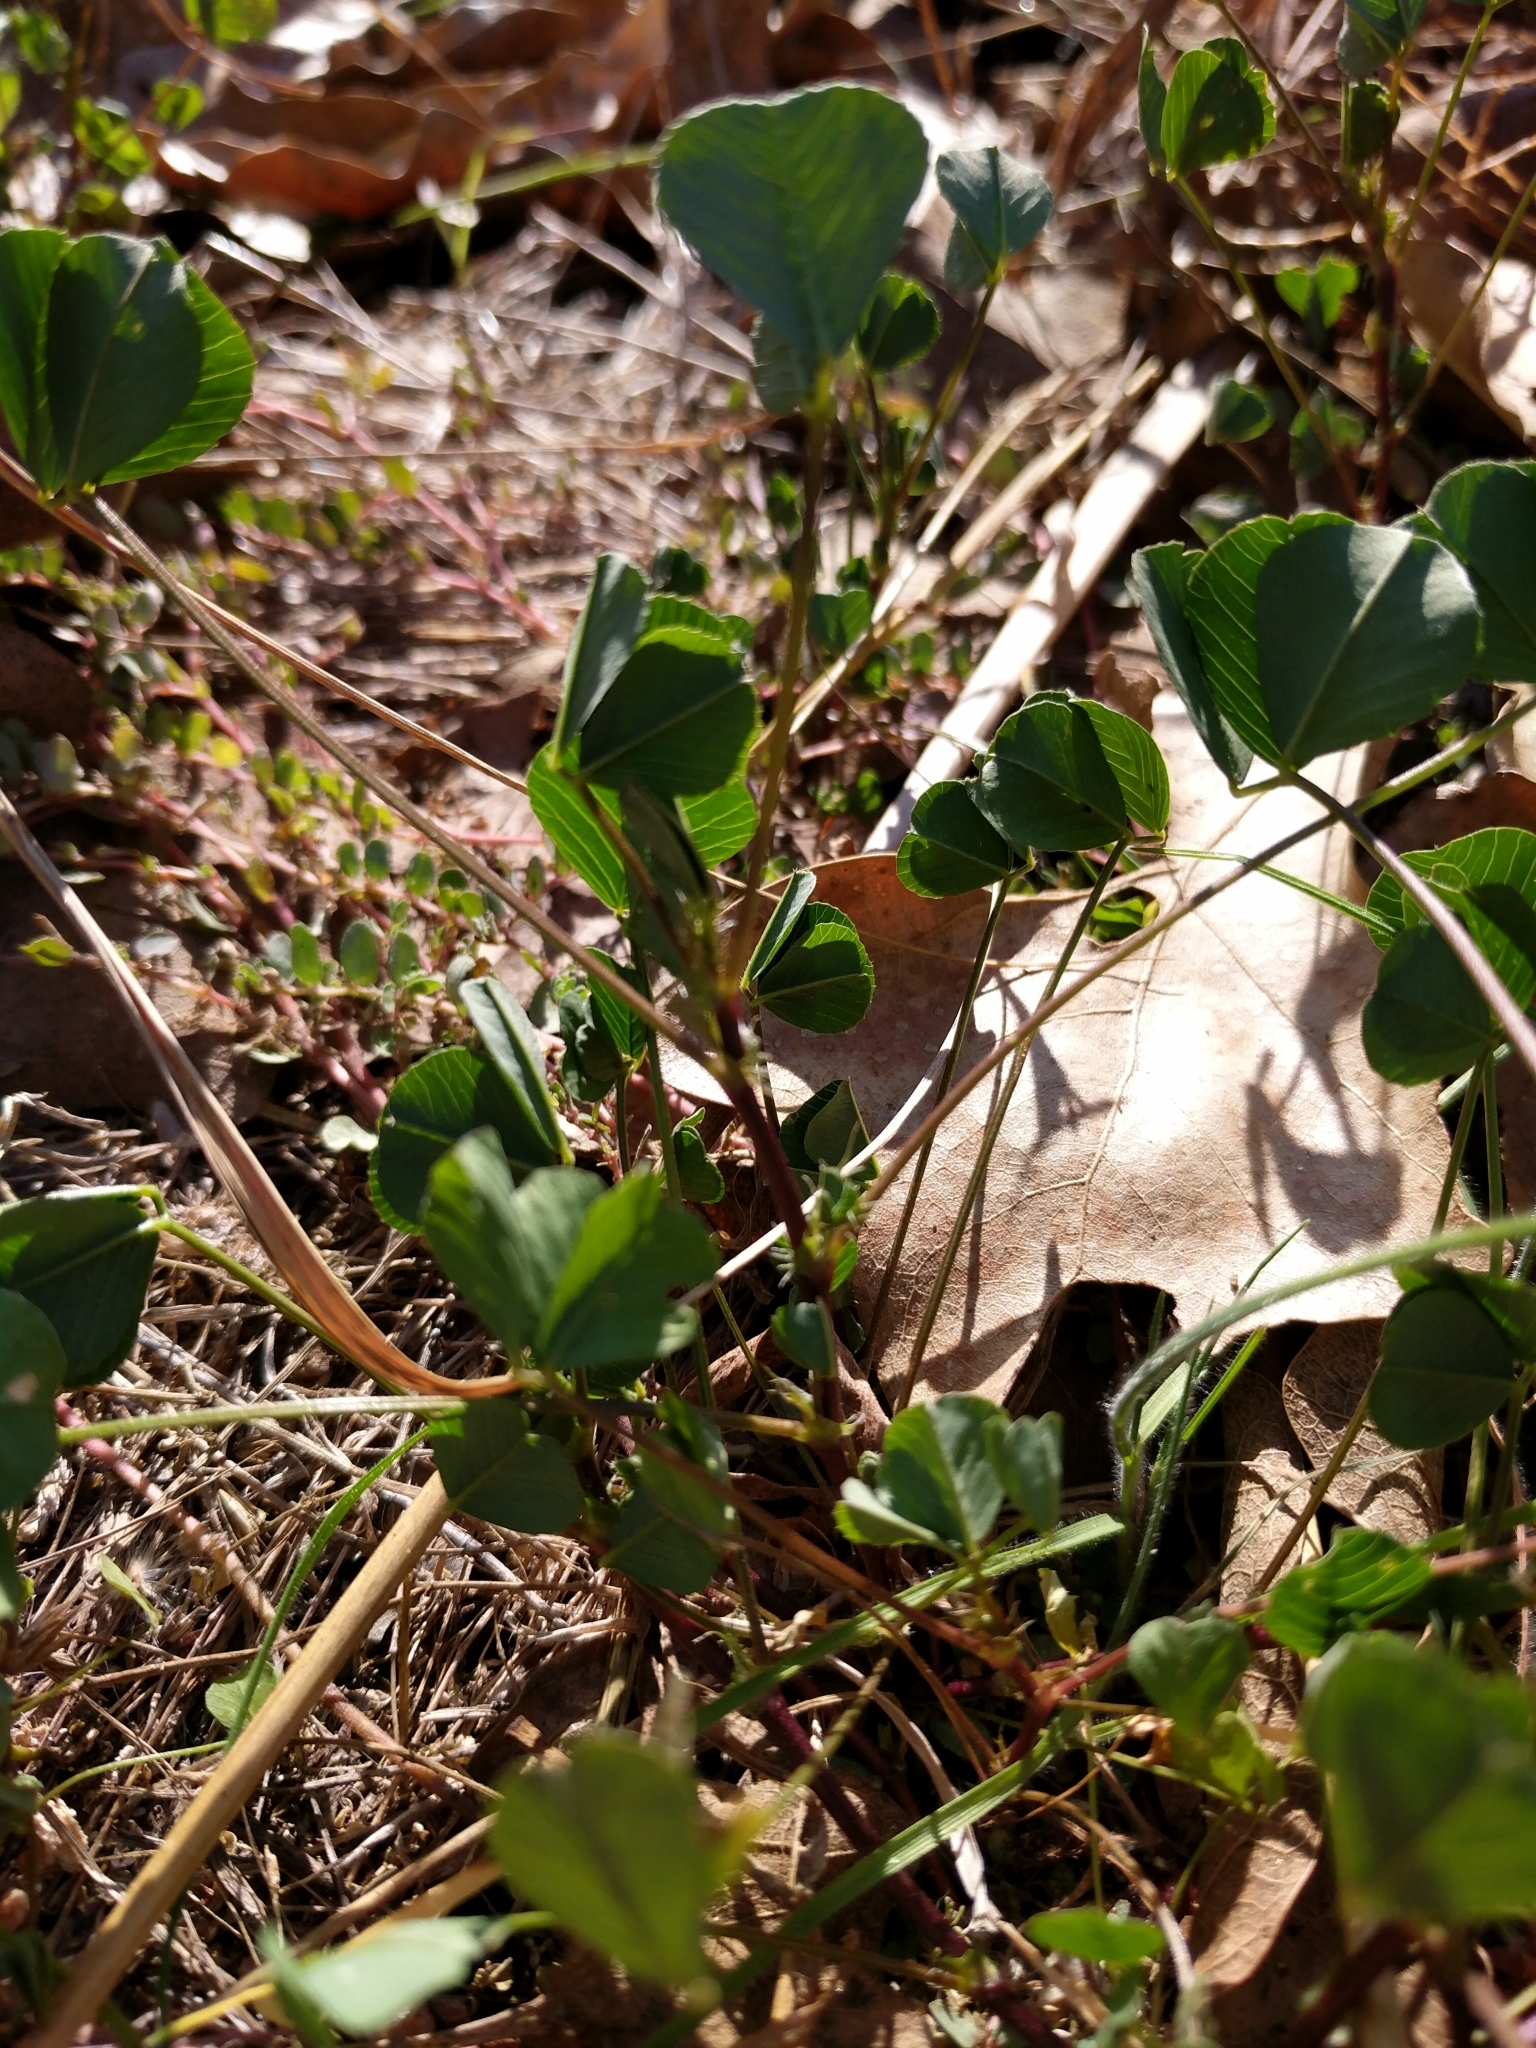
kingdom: Plantae
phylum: Tracheophyta
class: Magnoliopsida
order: Fabales
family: Fabaceae
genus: Medicago
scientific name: Medicago polymorpha
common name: Burclover
